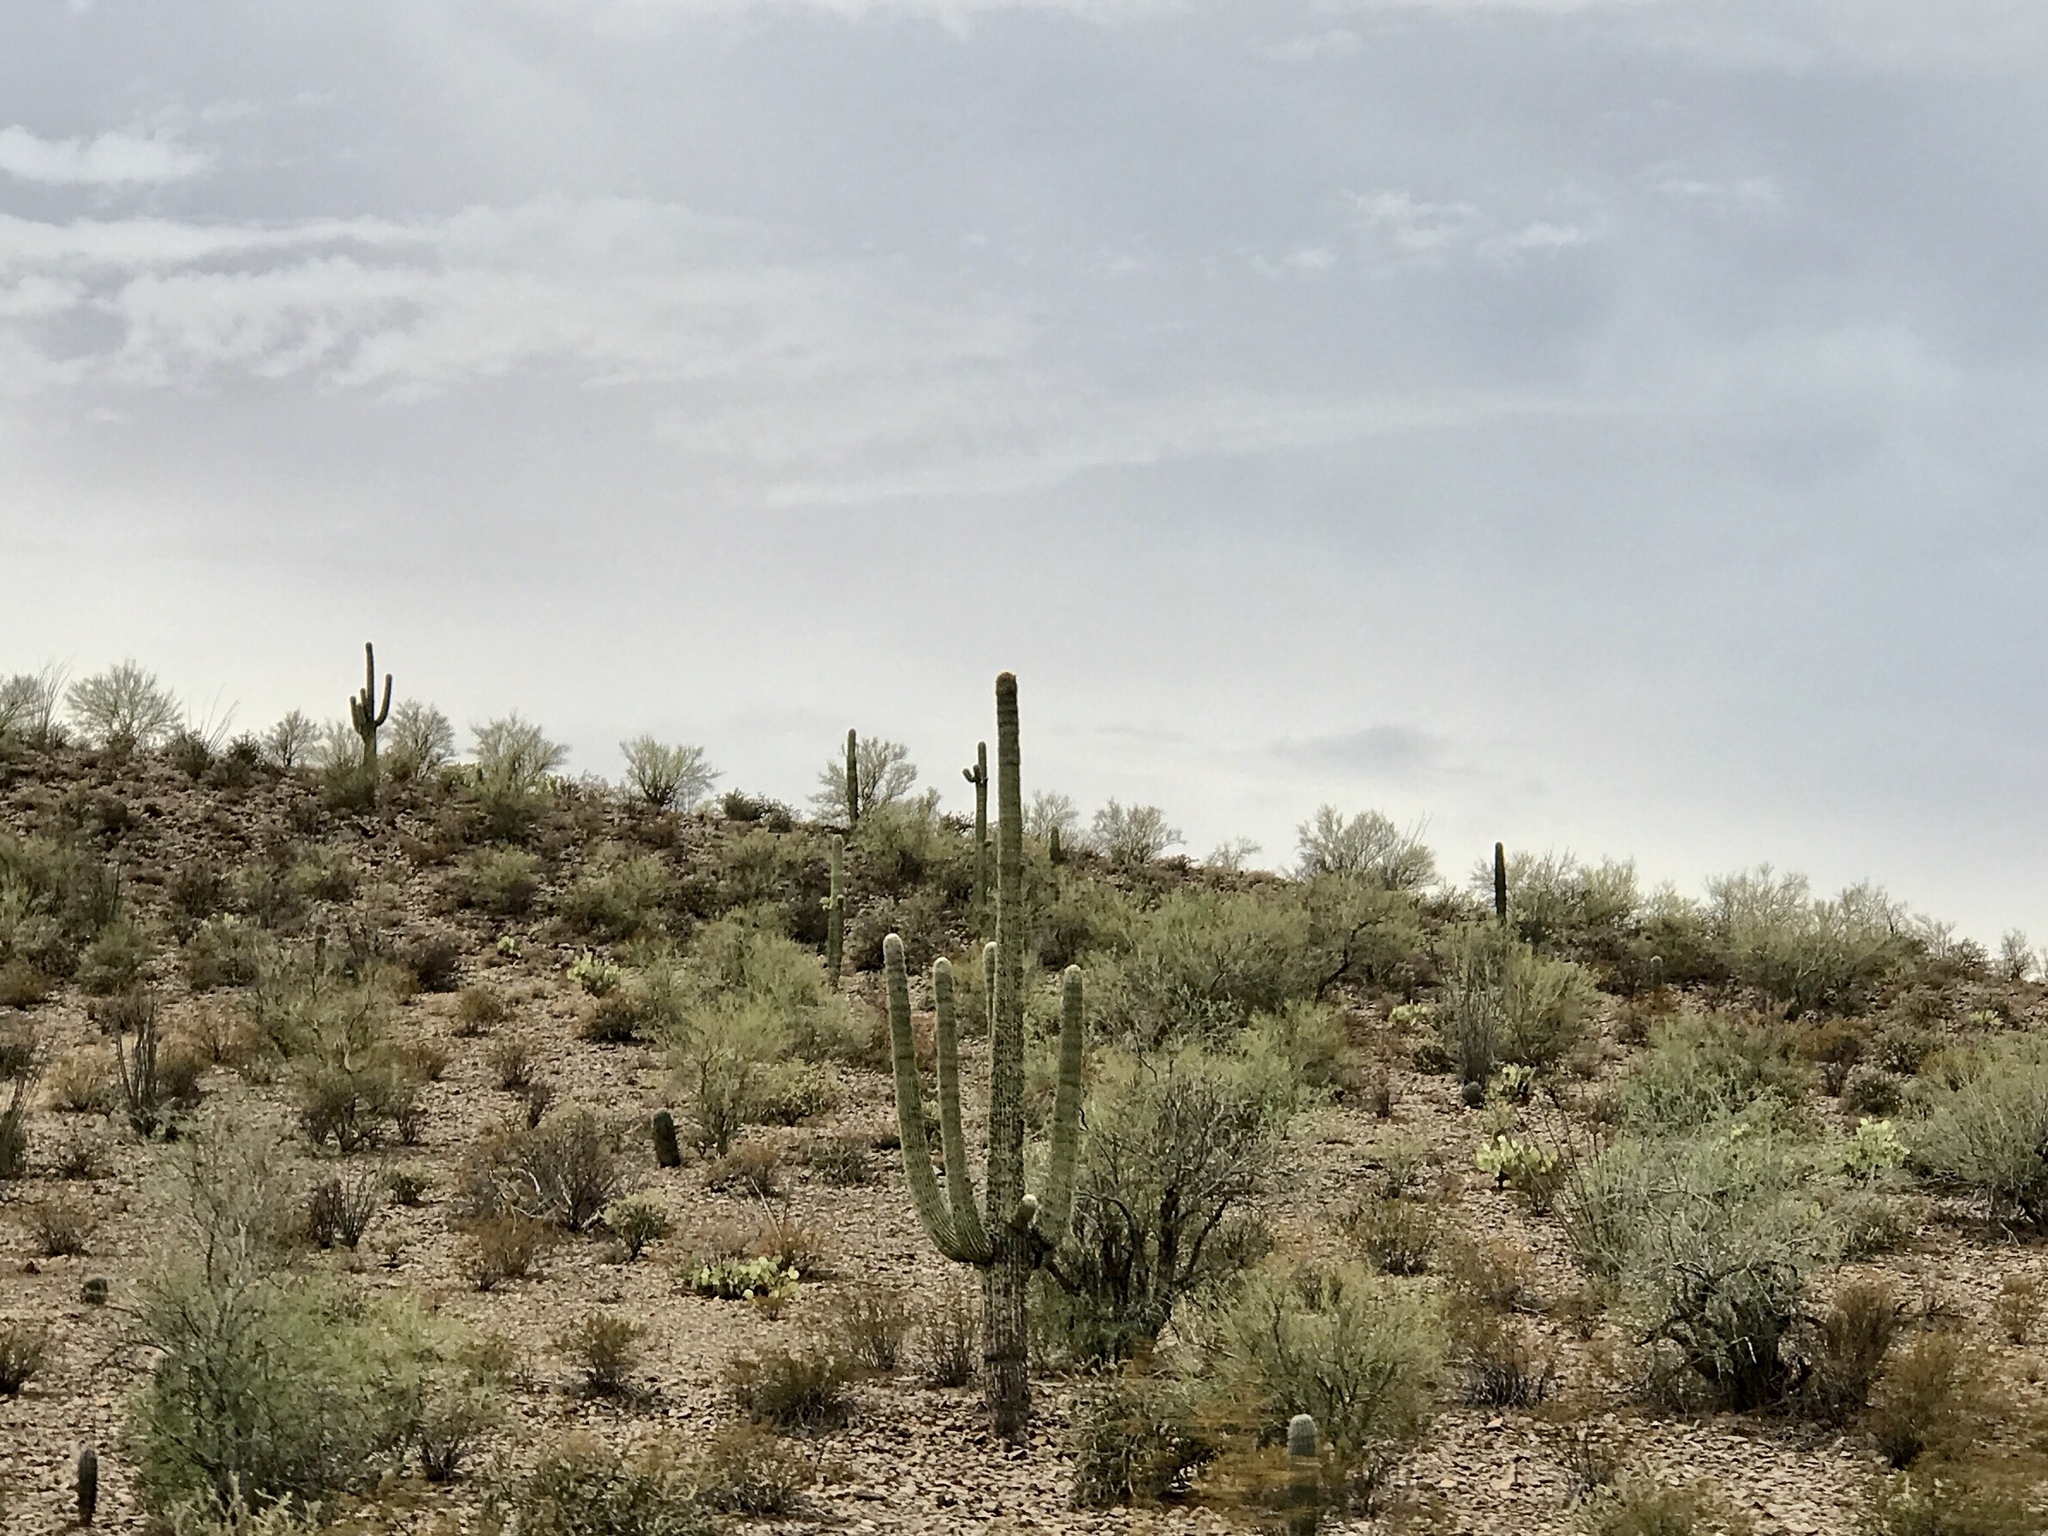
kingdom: Plantae
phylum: Tracheophyta
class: Magnoliopsida
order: Caryophyllales
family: Cactaceae
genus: Carnegiea
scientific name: Carnegiea gigantea
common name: Saguaro
